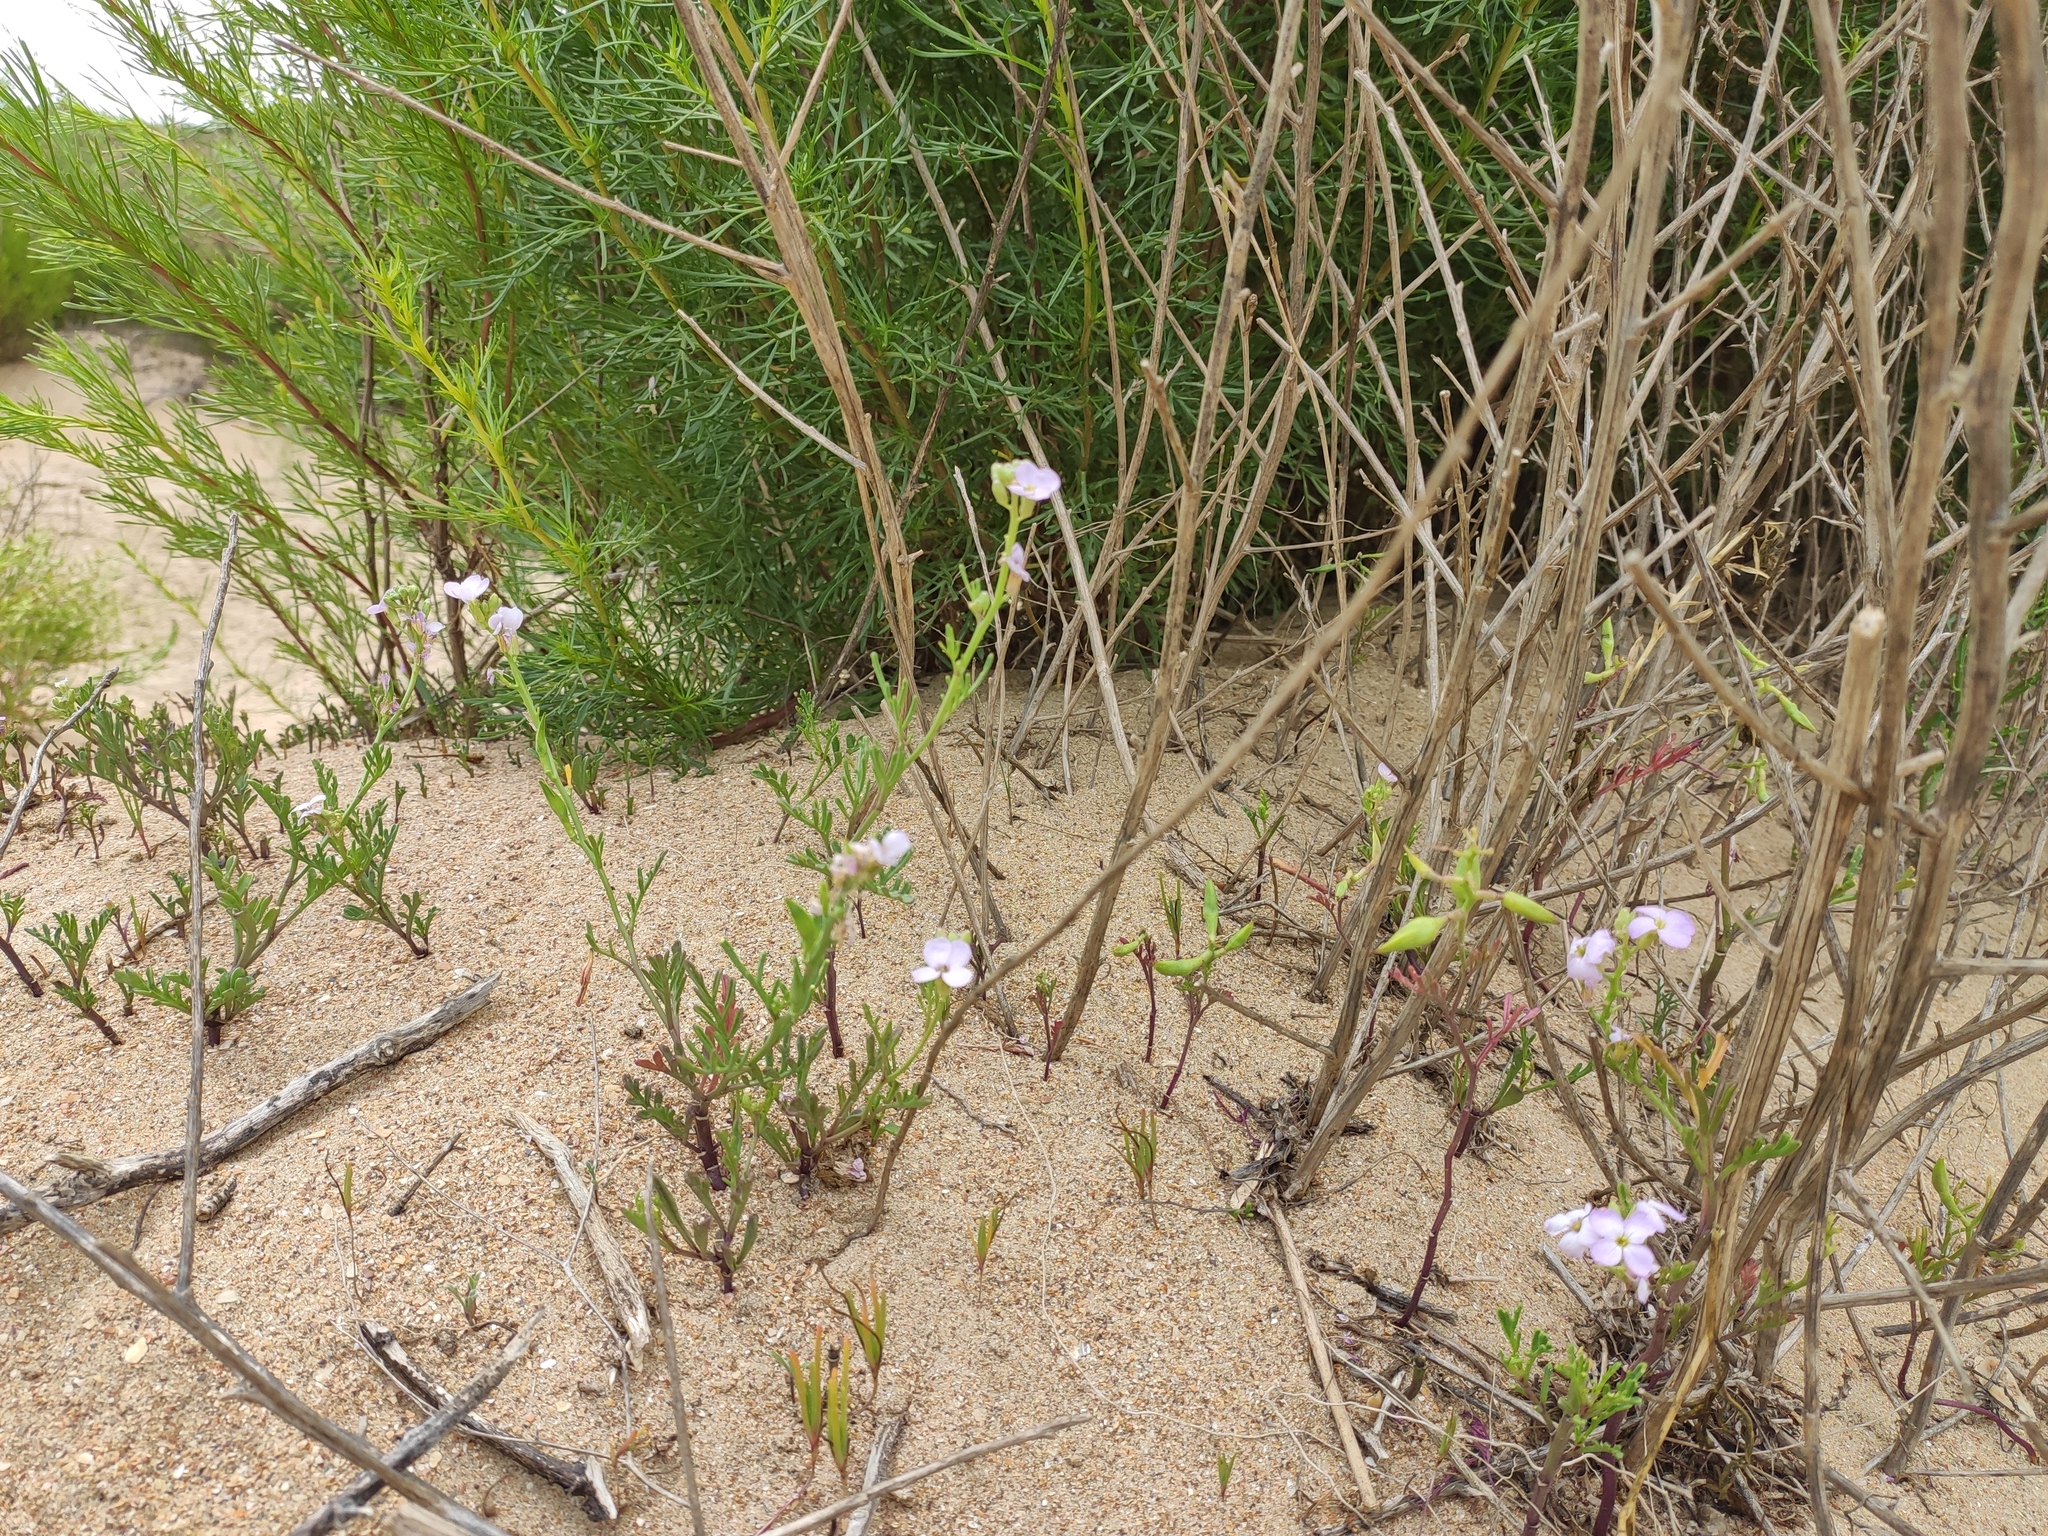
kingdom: Plantae
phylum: Tracheophyta
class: Magnoliopsida
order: Brassicales
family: Brassicaceae
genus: Cakile
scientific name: Cakile maritima
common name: Sea rocket
